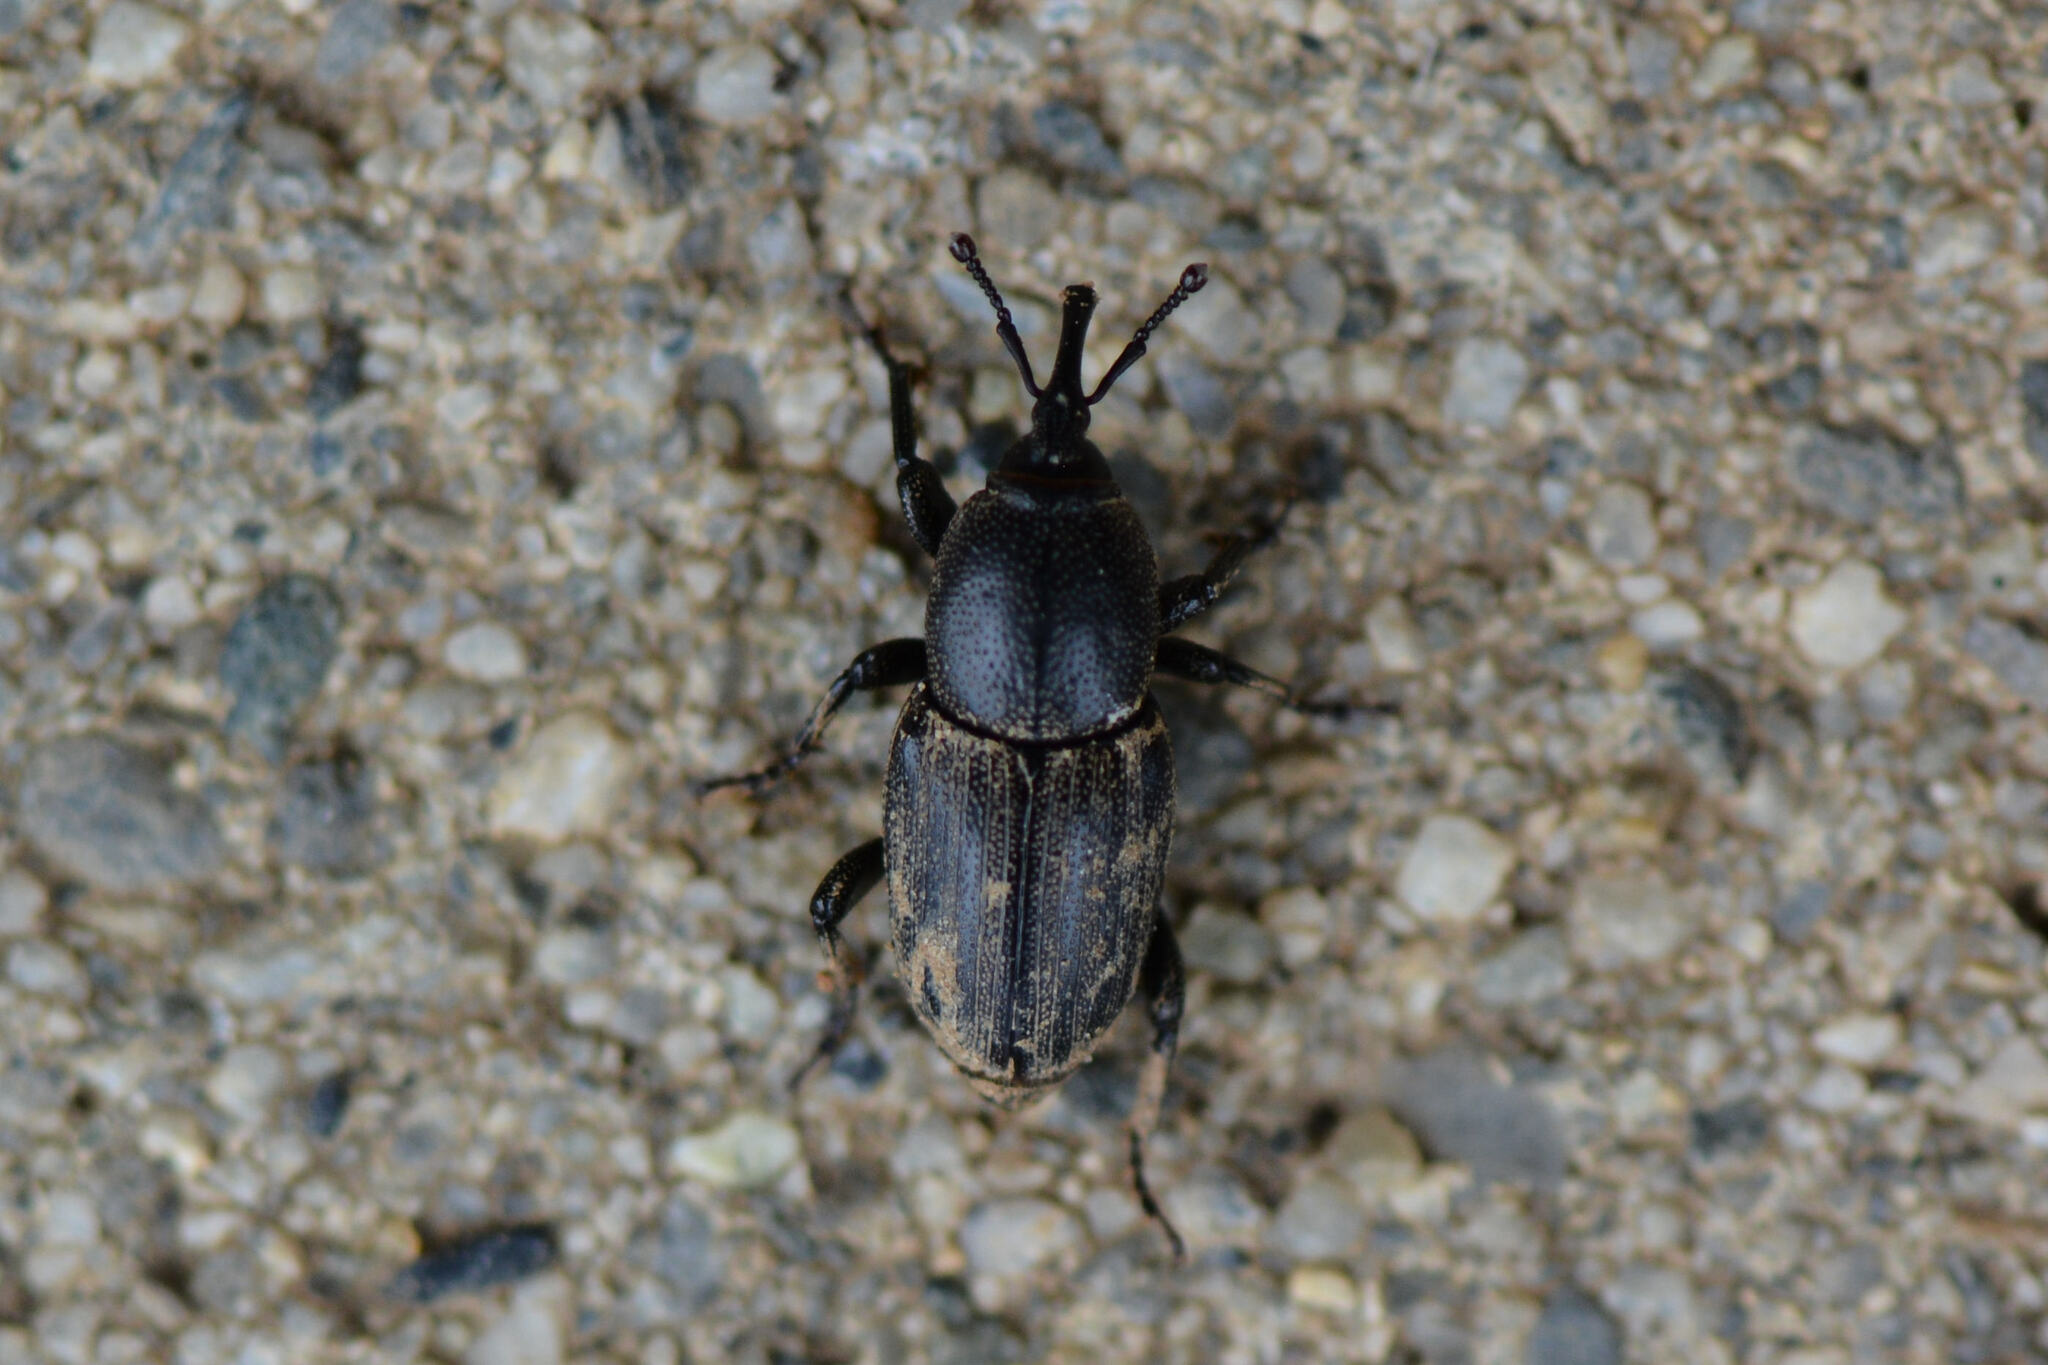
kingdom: Animalia
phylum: Arthropoda
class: Insecta
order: Coleoptera
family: Dryophthoridae
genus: Sphenophorus
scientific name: Sphenophorus striatopunctatus
